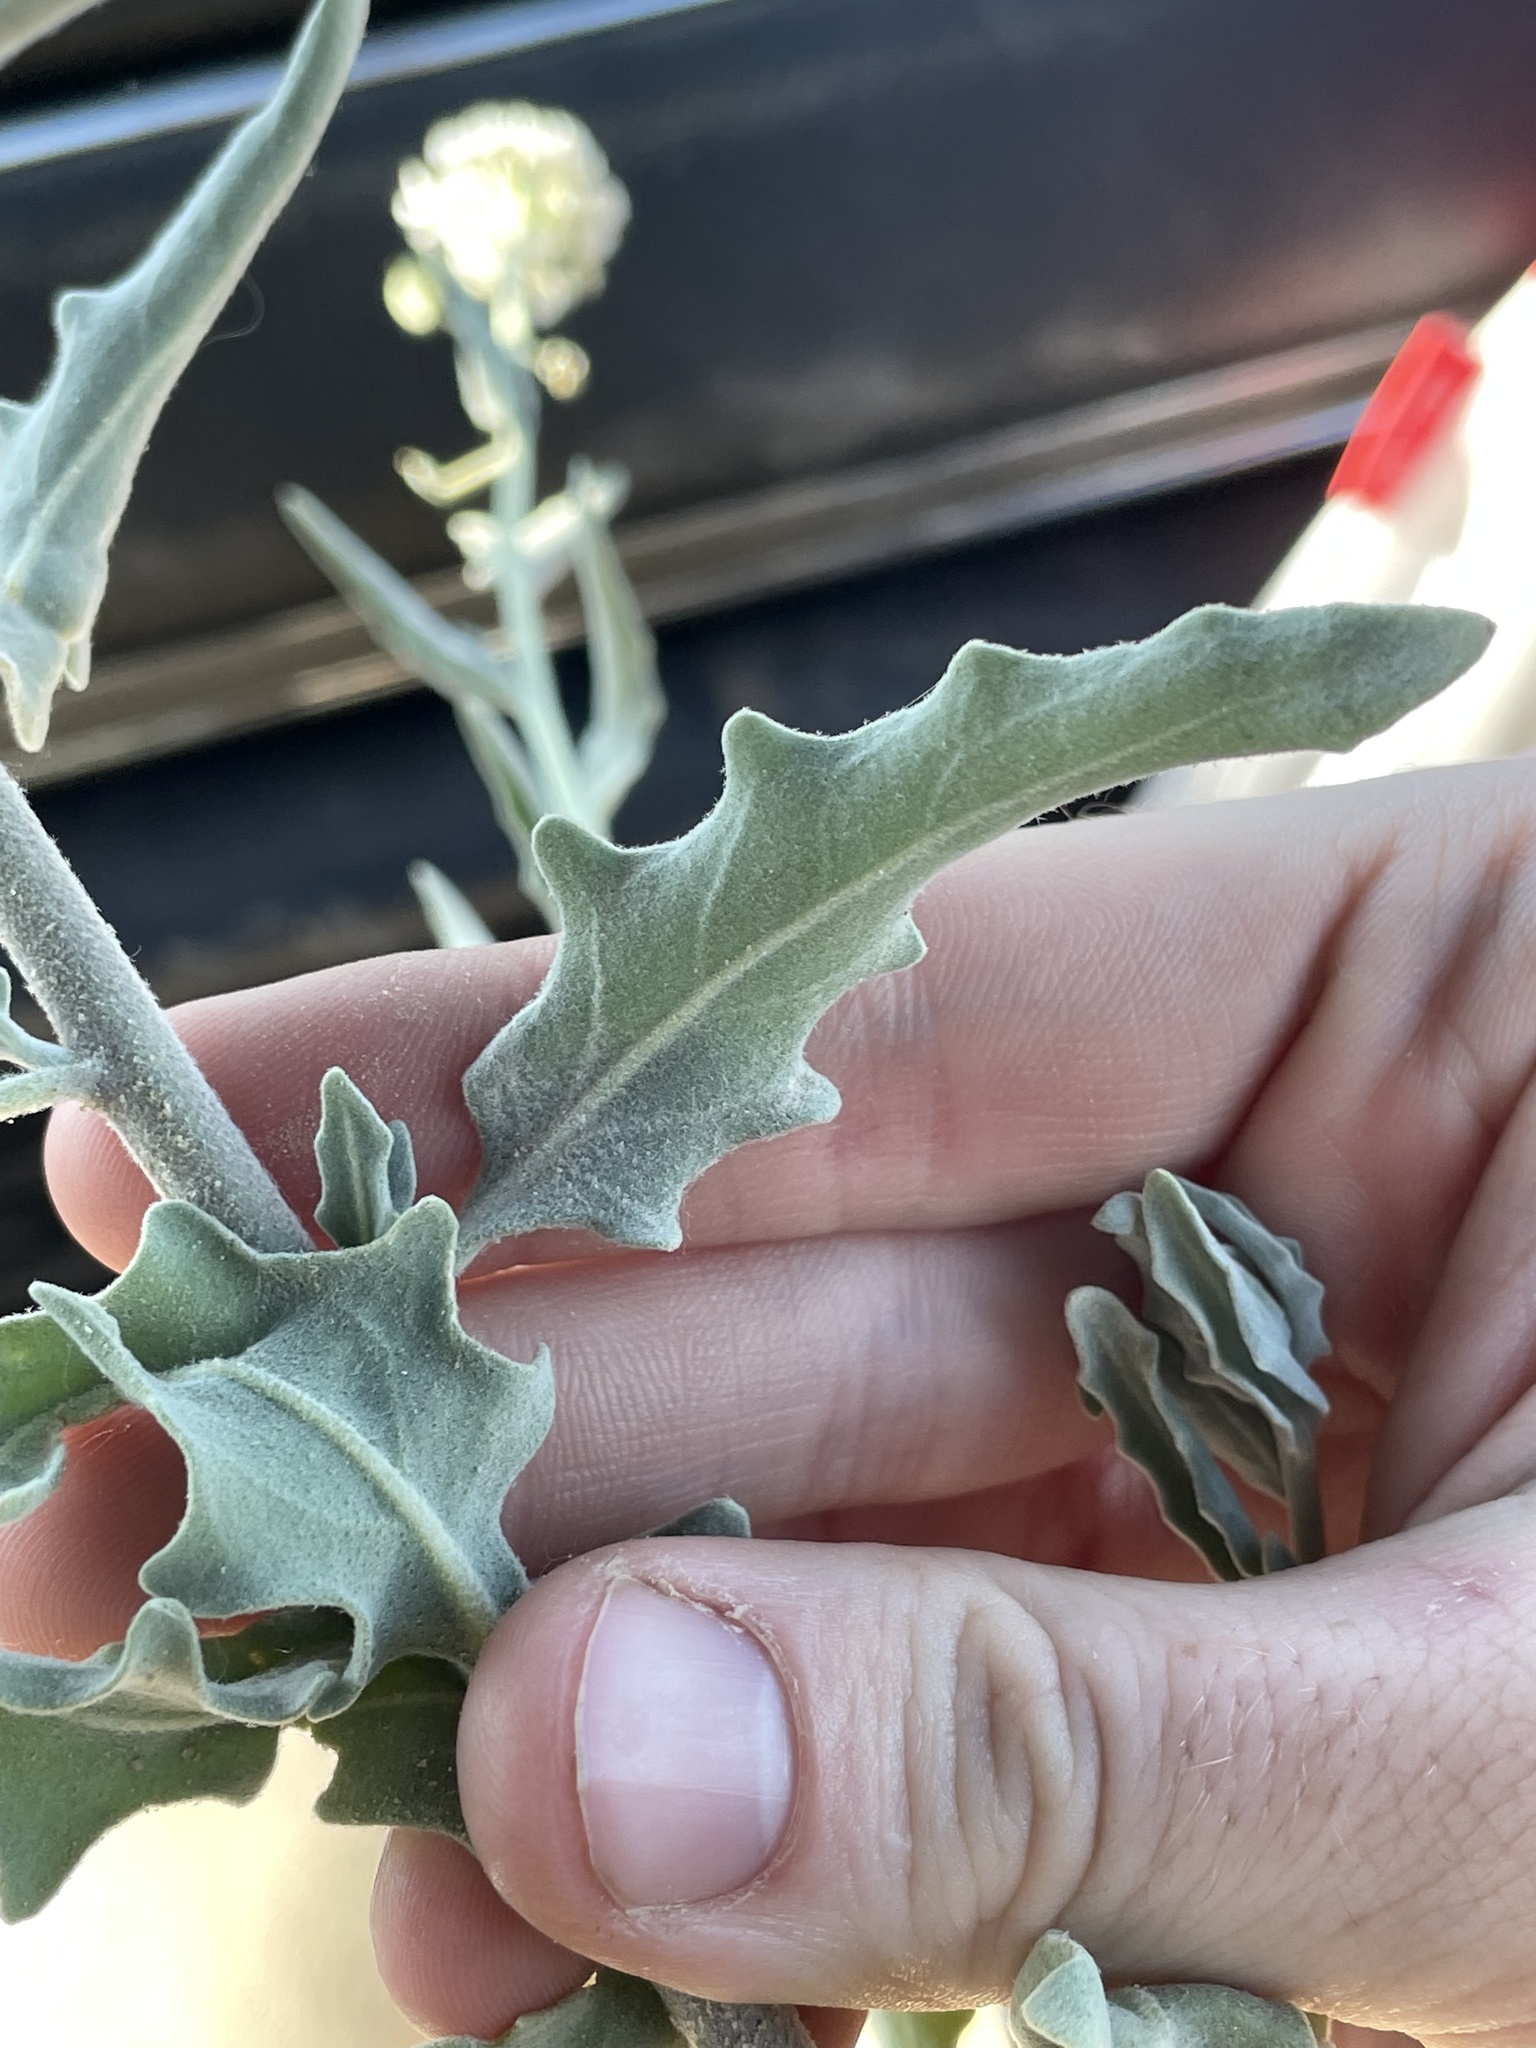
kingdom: Plantae
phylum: Tracheophyta
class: Magnoliopsida
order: Brassicales
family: Brassicaceae
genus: Dimorphocarpa
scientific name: Dimorphocarpa wislizenii
